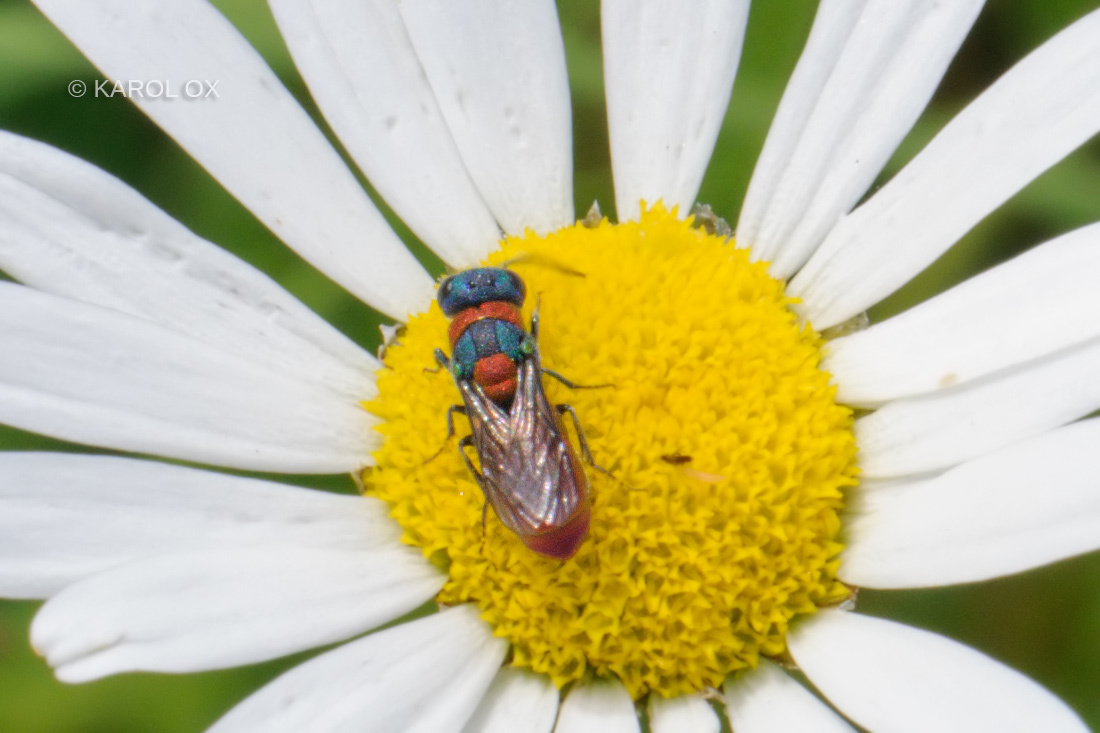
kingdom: Animalia
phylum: Arthropoda
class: Insecta
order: Hymenoptera
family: Chrysididae
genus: Pseudochrysis
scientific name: Pseudochrysis uniformis
